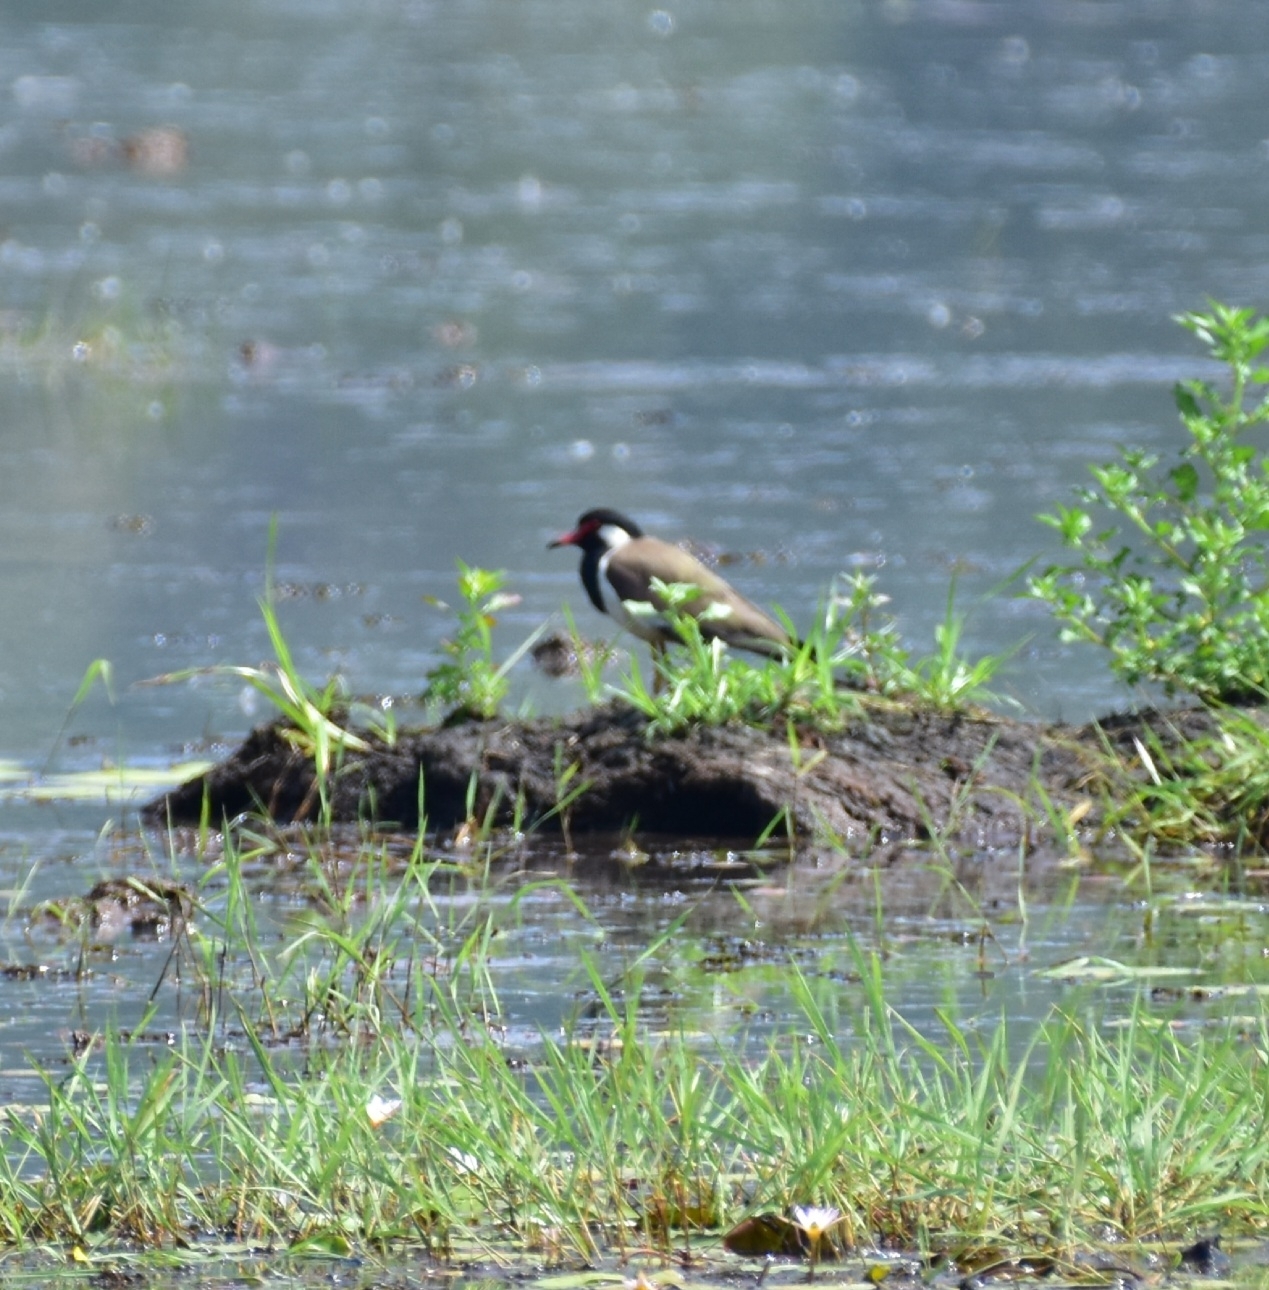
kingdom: Animalia
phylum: Chordata
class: Aves
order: Charadriiformes
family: Charadriidae
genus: Vanellus
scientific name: Vanellus indicus
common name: Red-wattled lapwing
